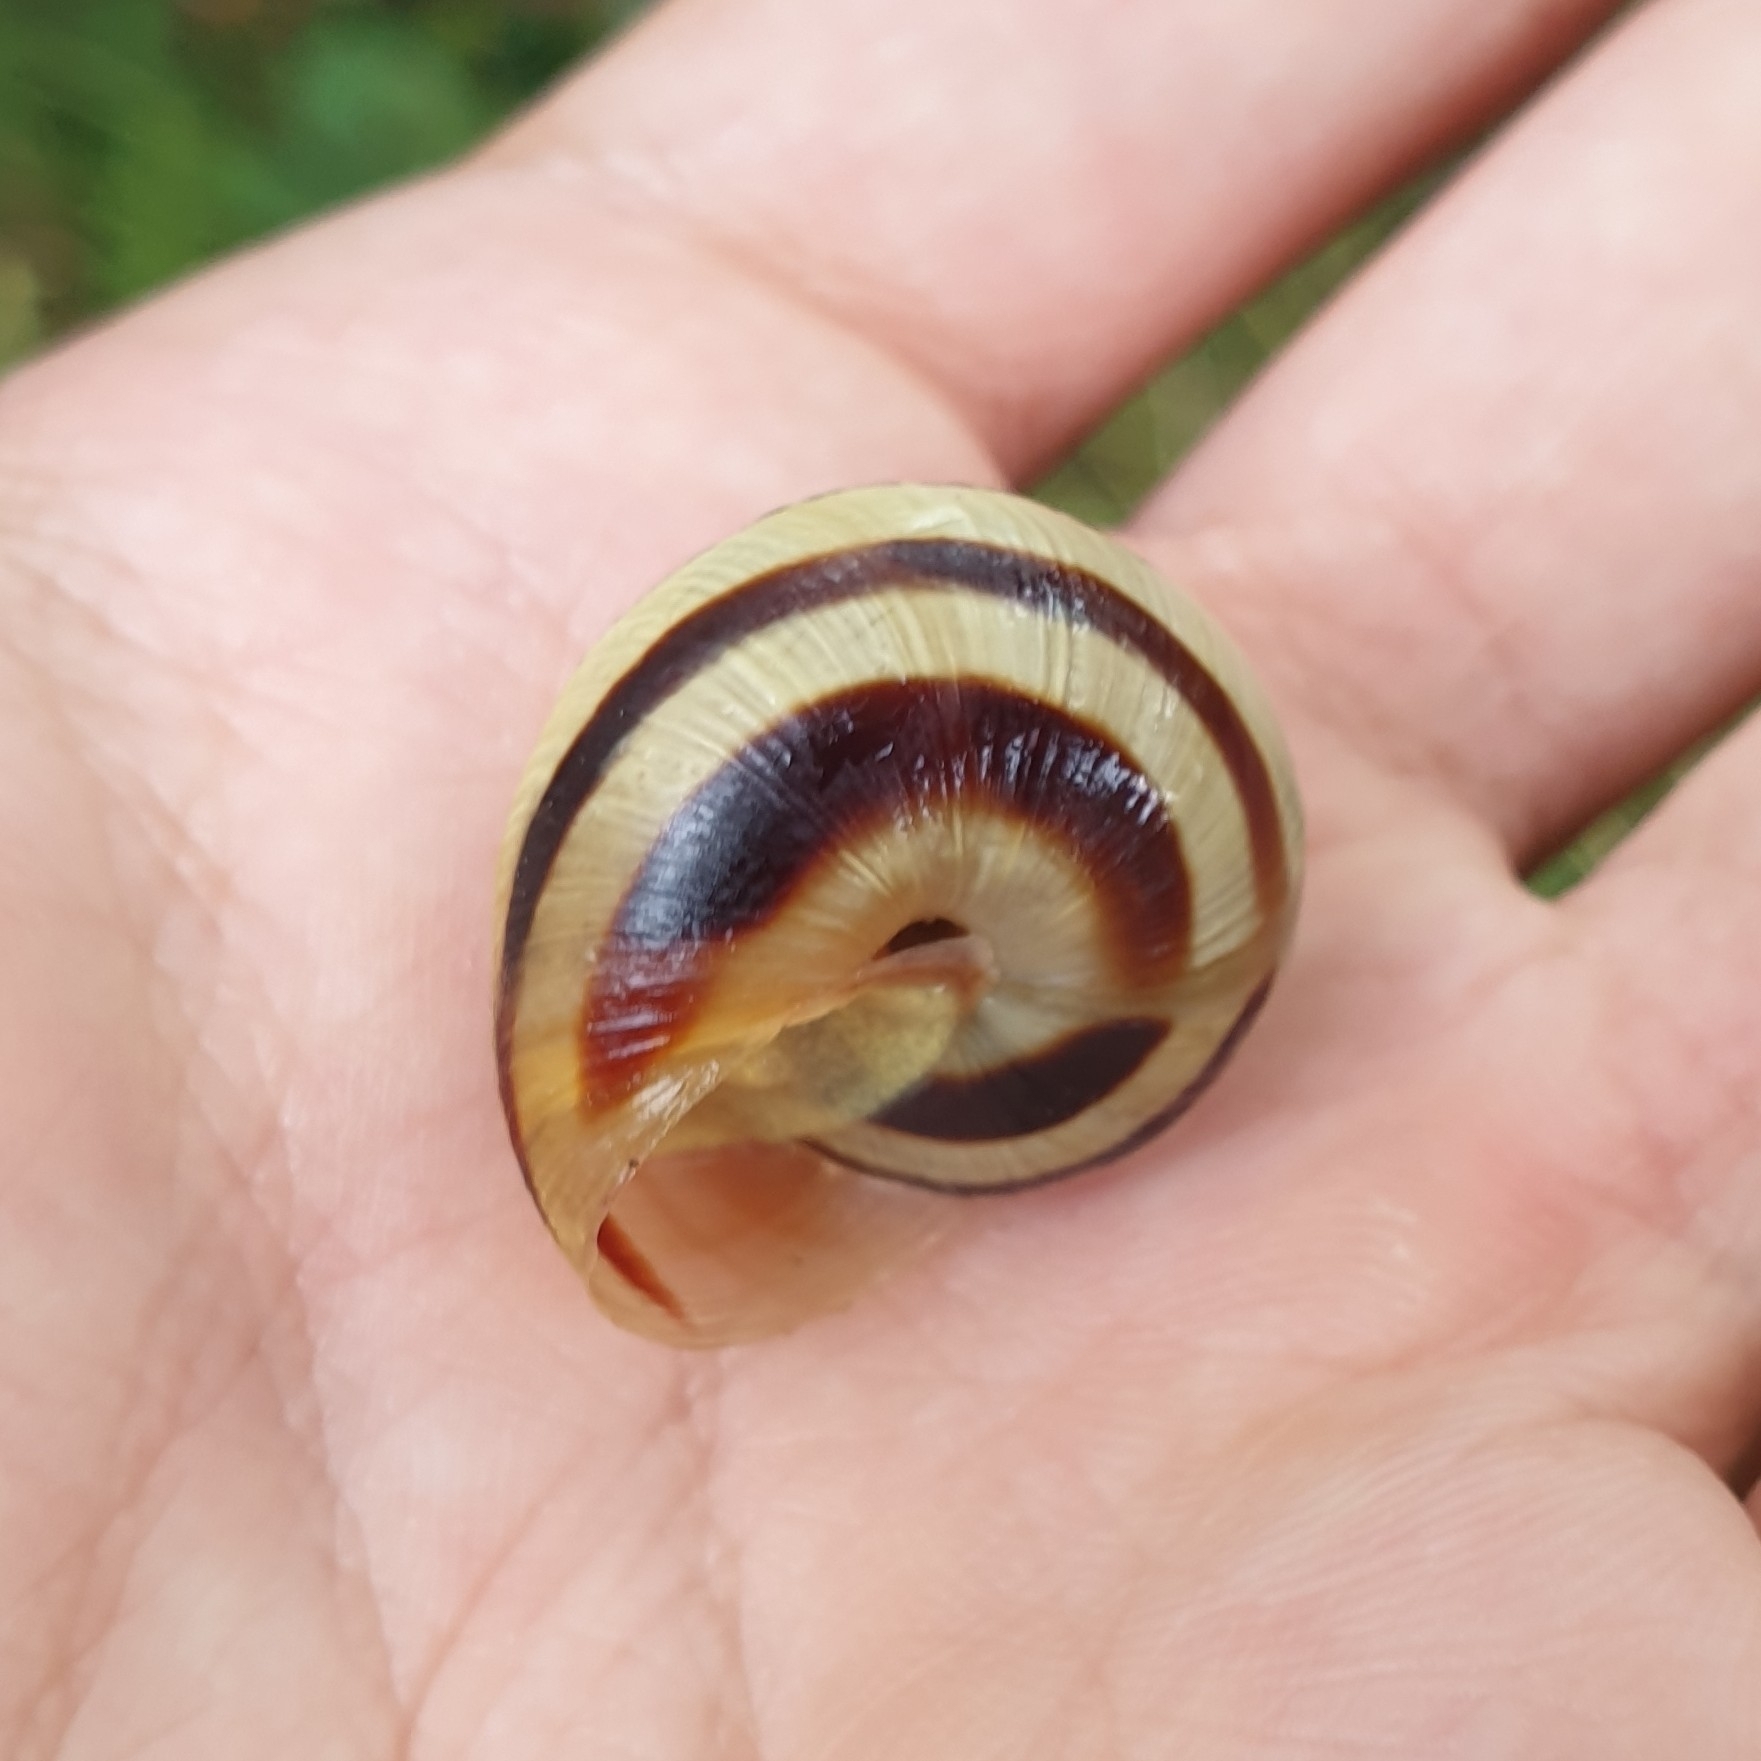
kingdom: Animalia
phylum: Mollusca
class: Gastropoda
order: Stylommatophora
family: Helicidae
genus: Caucasotachea
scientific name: Caucasotachea vindobonensis
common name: European helicid land snail
